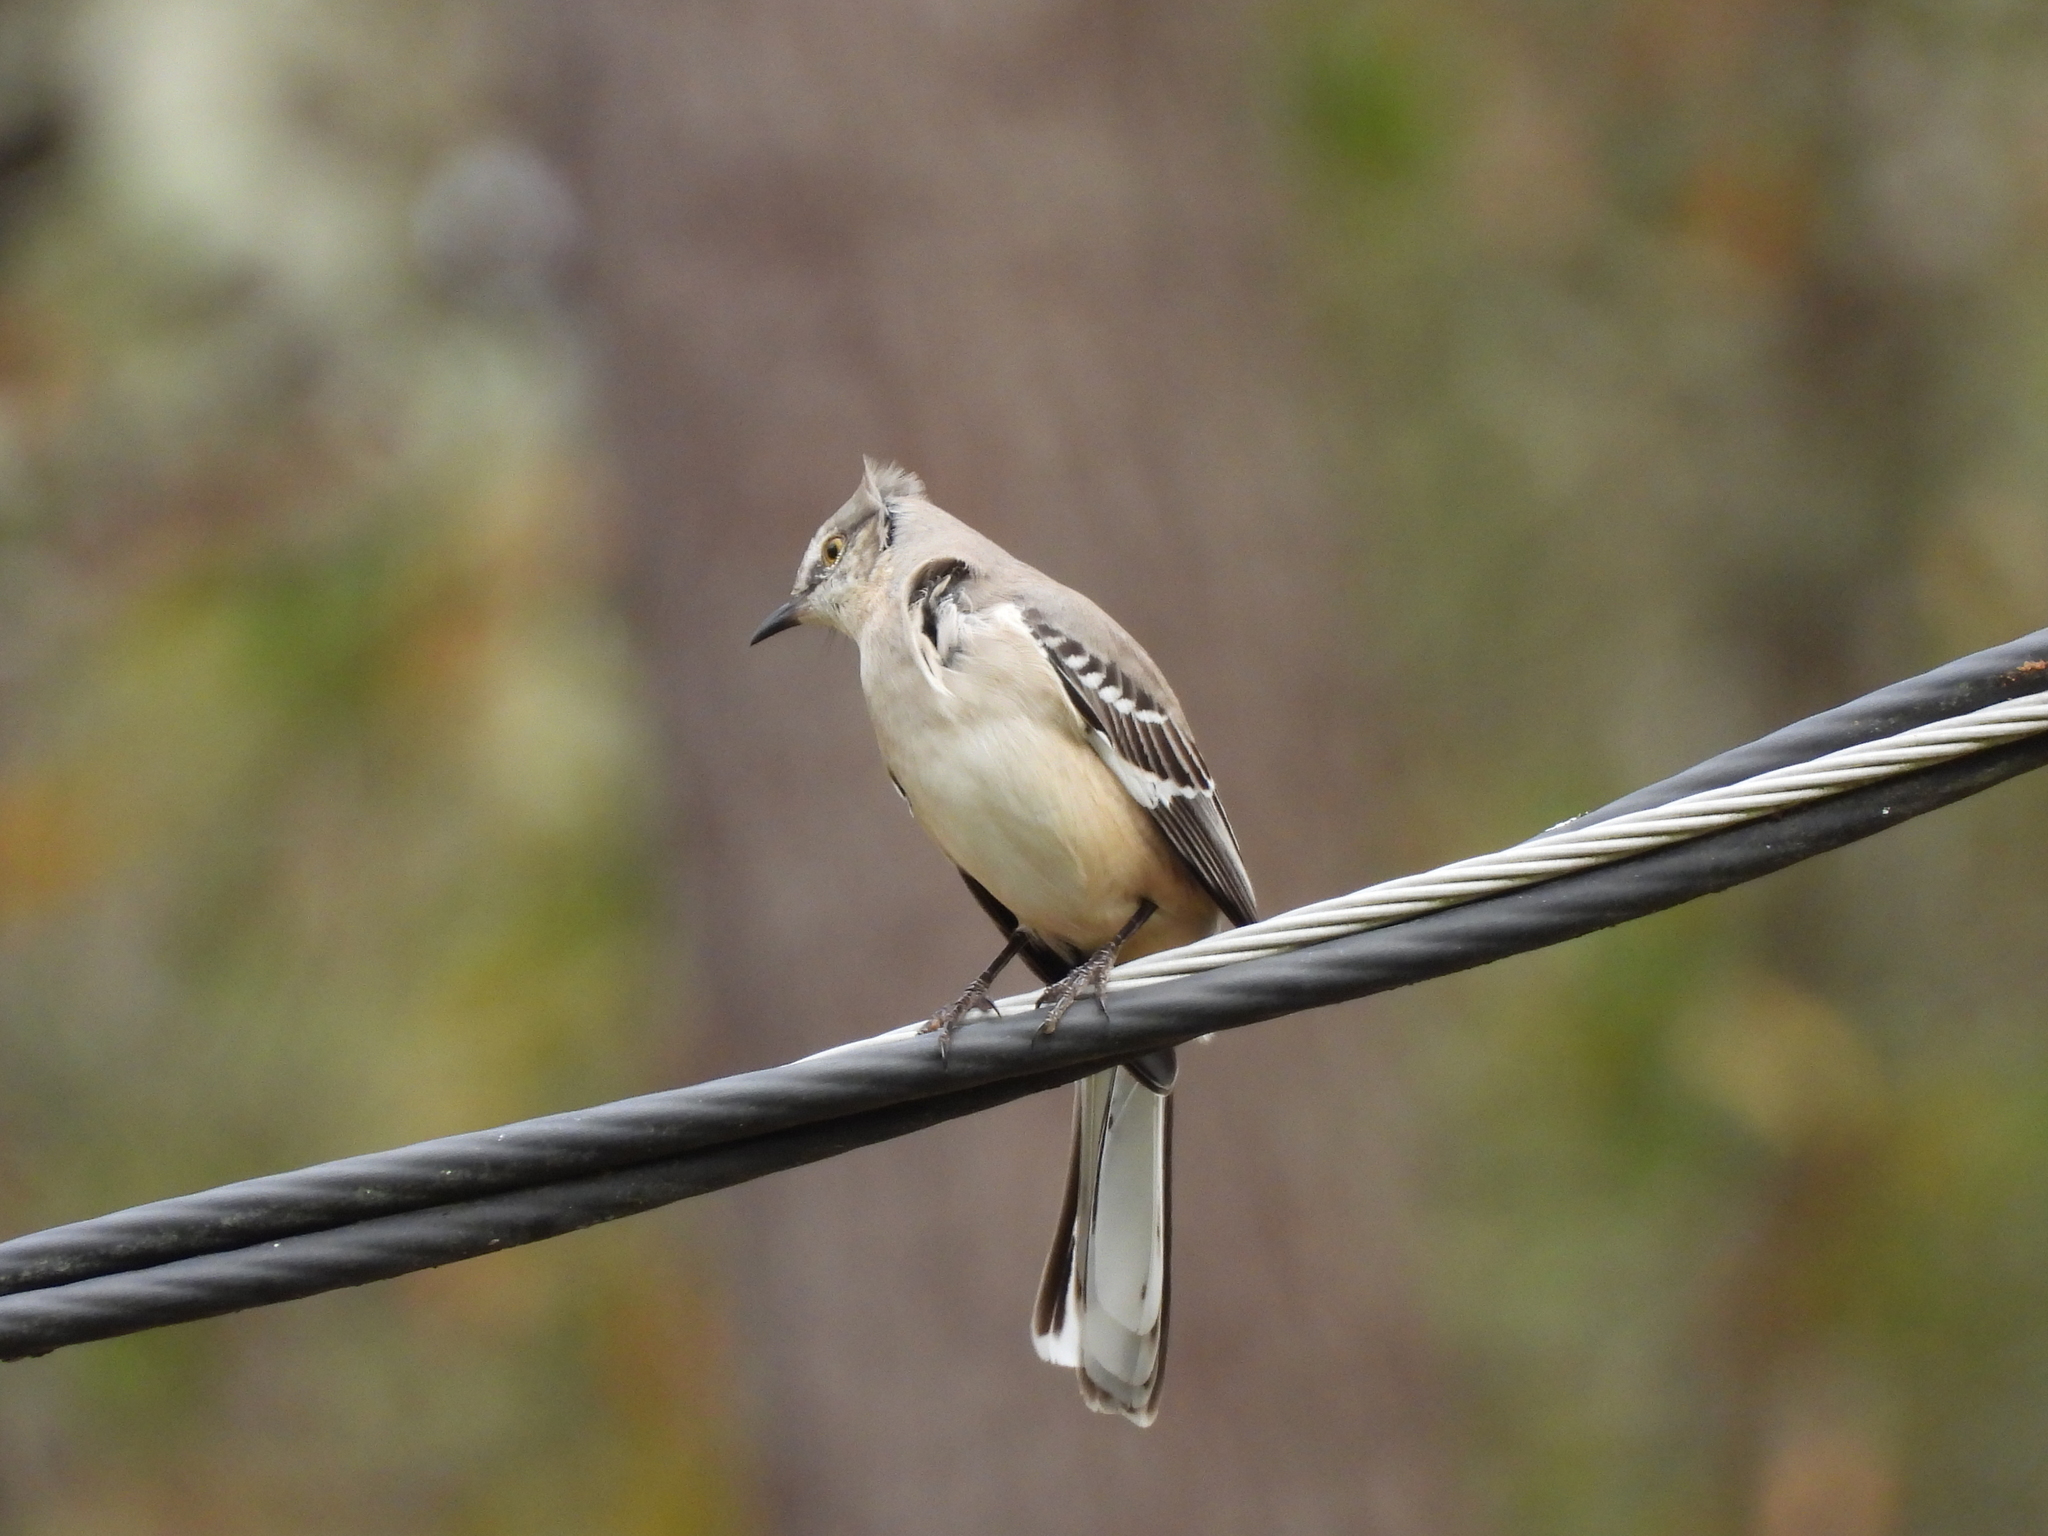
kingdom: Animalia
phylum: Chordata
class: Aves
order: Passeriformes
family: Mimidae
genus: Mimus
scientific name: Mimus polyglottos
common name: Northern mockingbird
